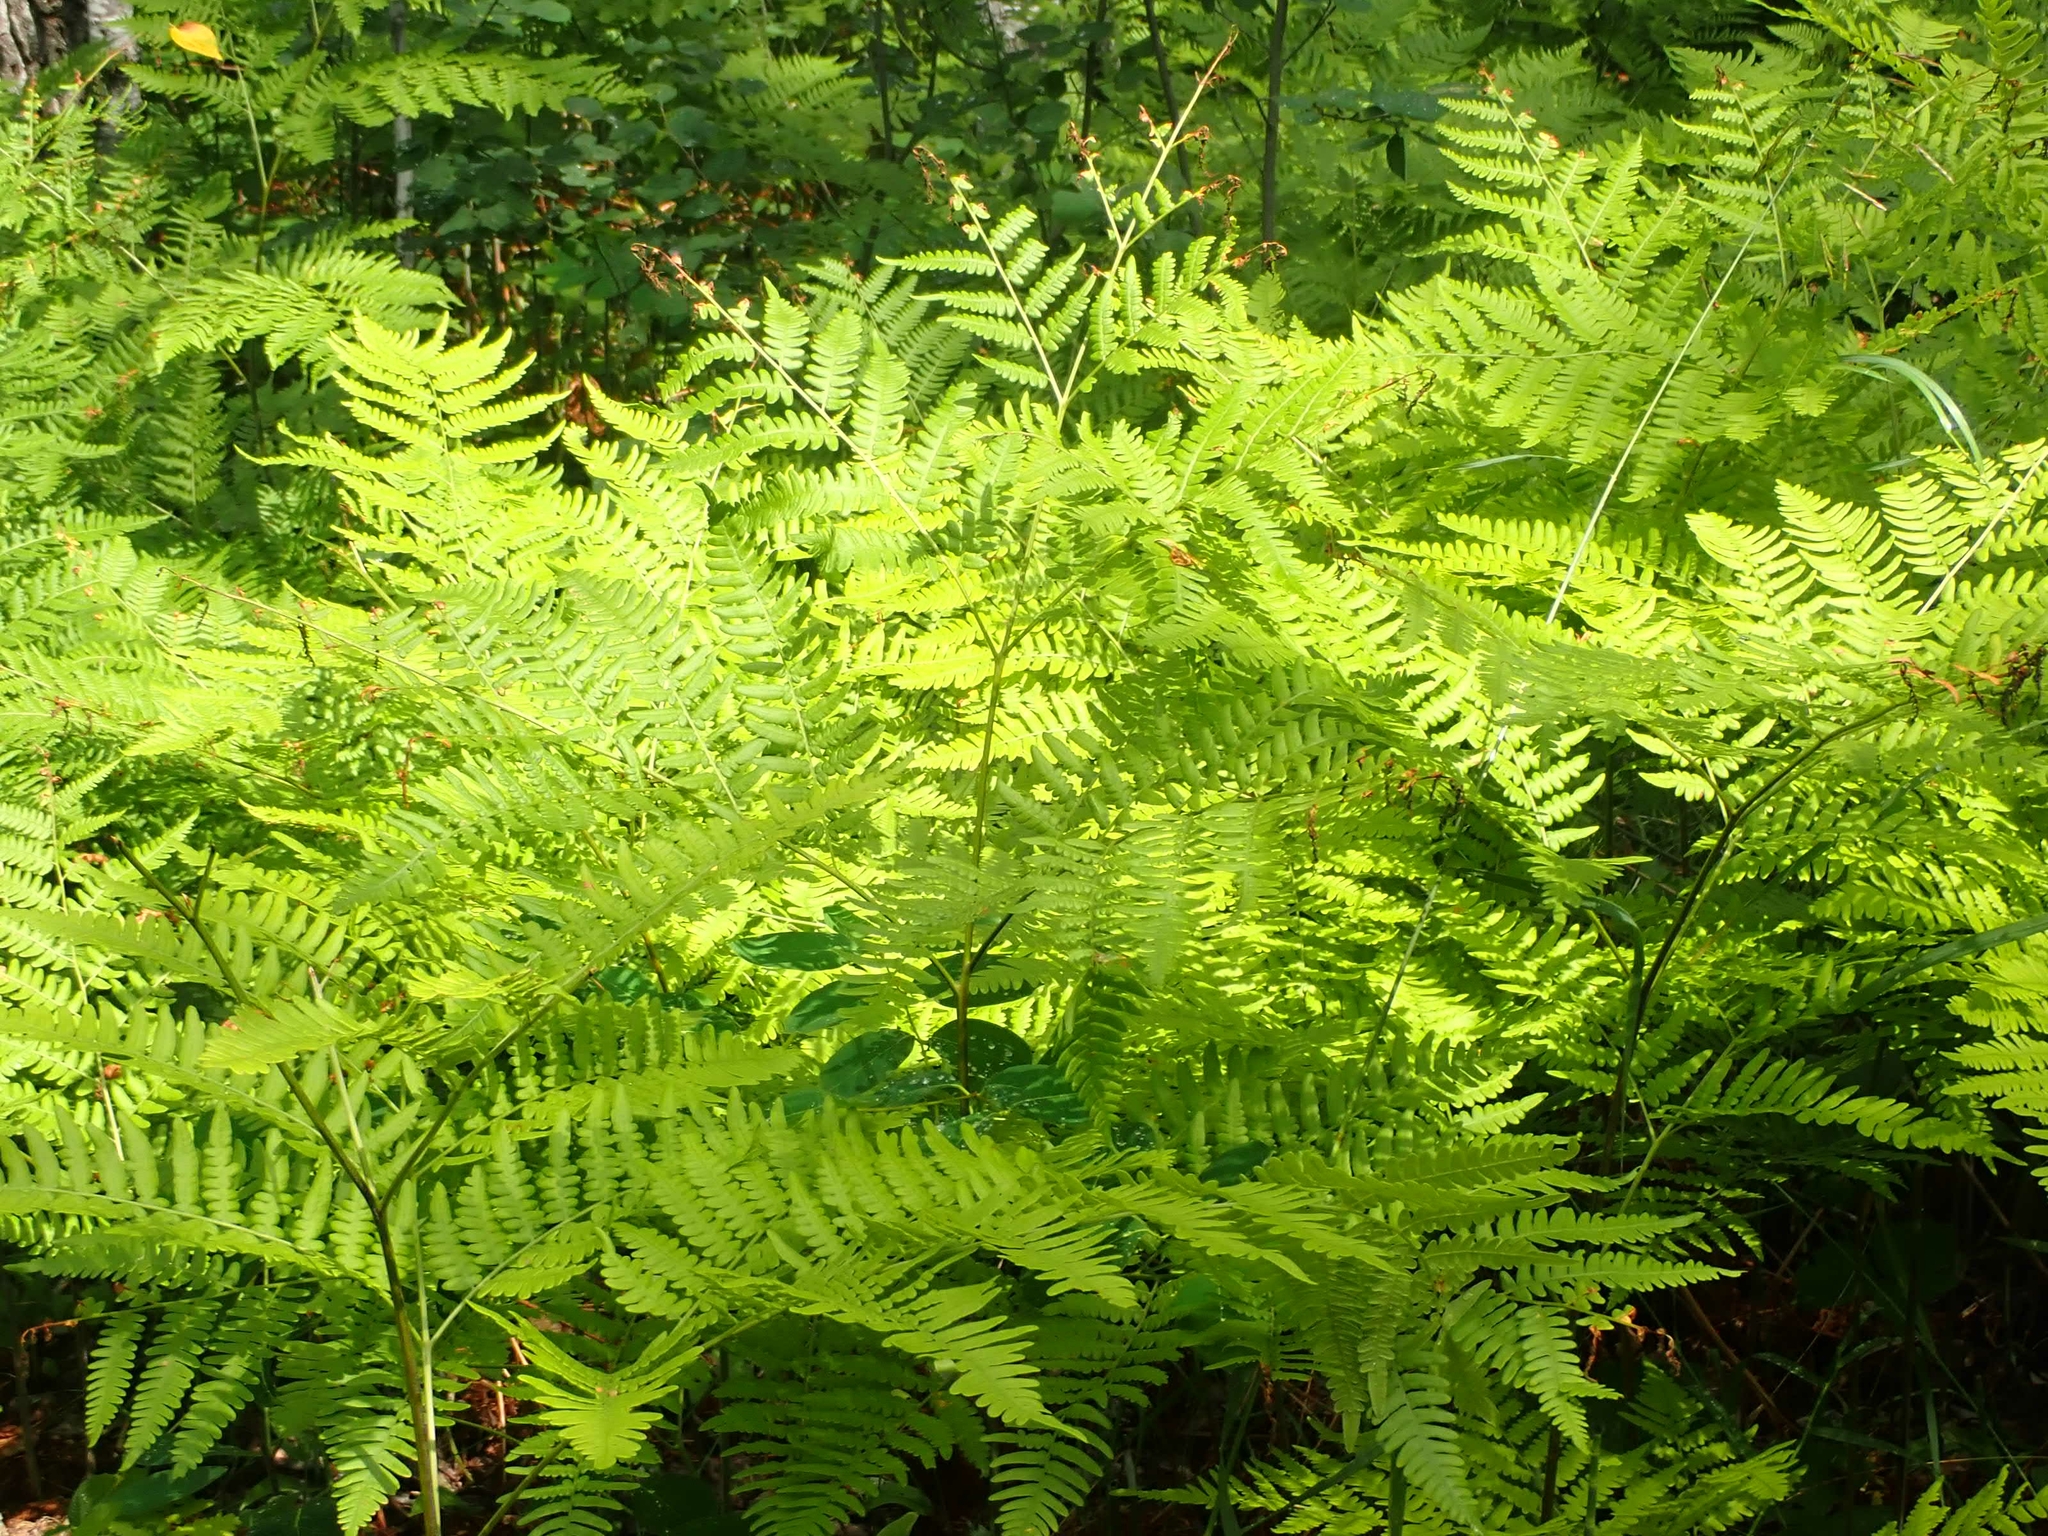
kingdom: Plantae
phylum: Tracheophyta
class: Polypodiopsida
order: Polypodiales
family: Dennstaedtiaceae
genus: Pteridium
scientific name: Pteridium aquilinum
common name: Bracken
